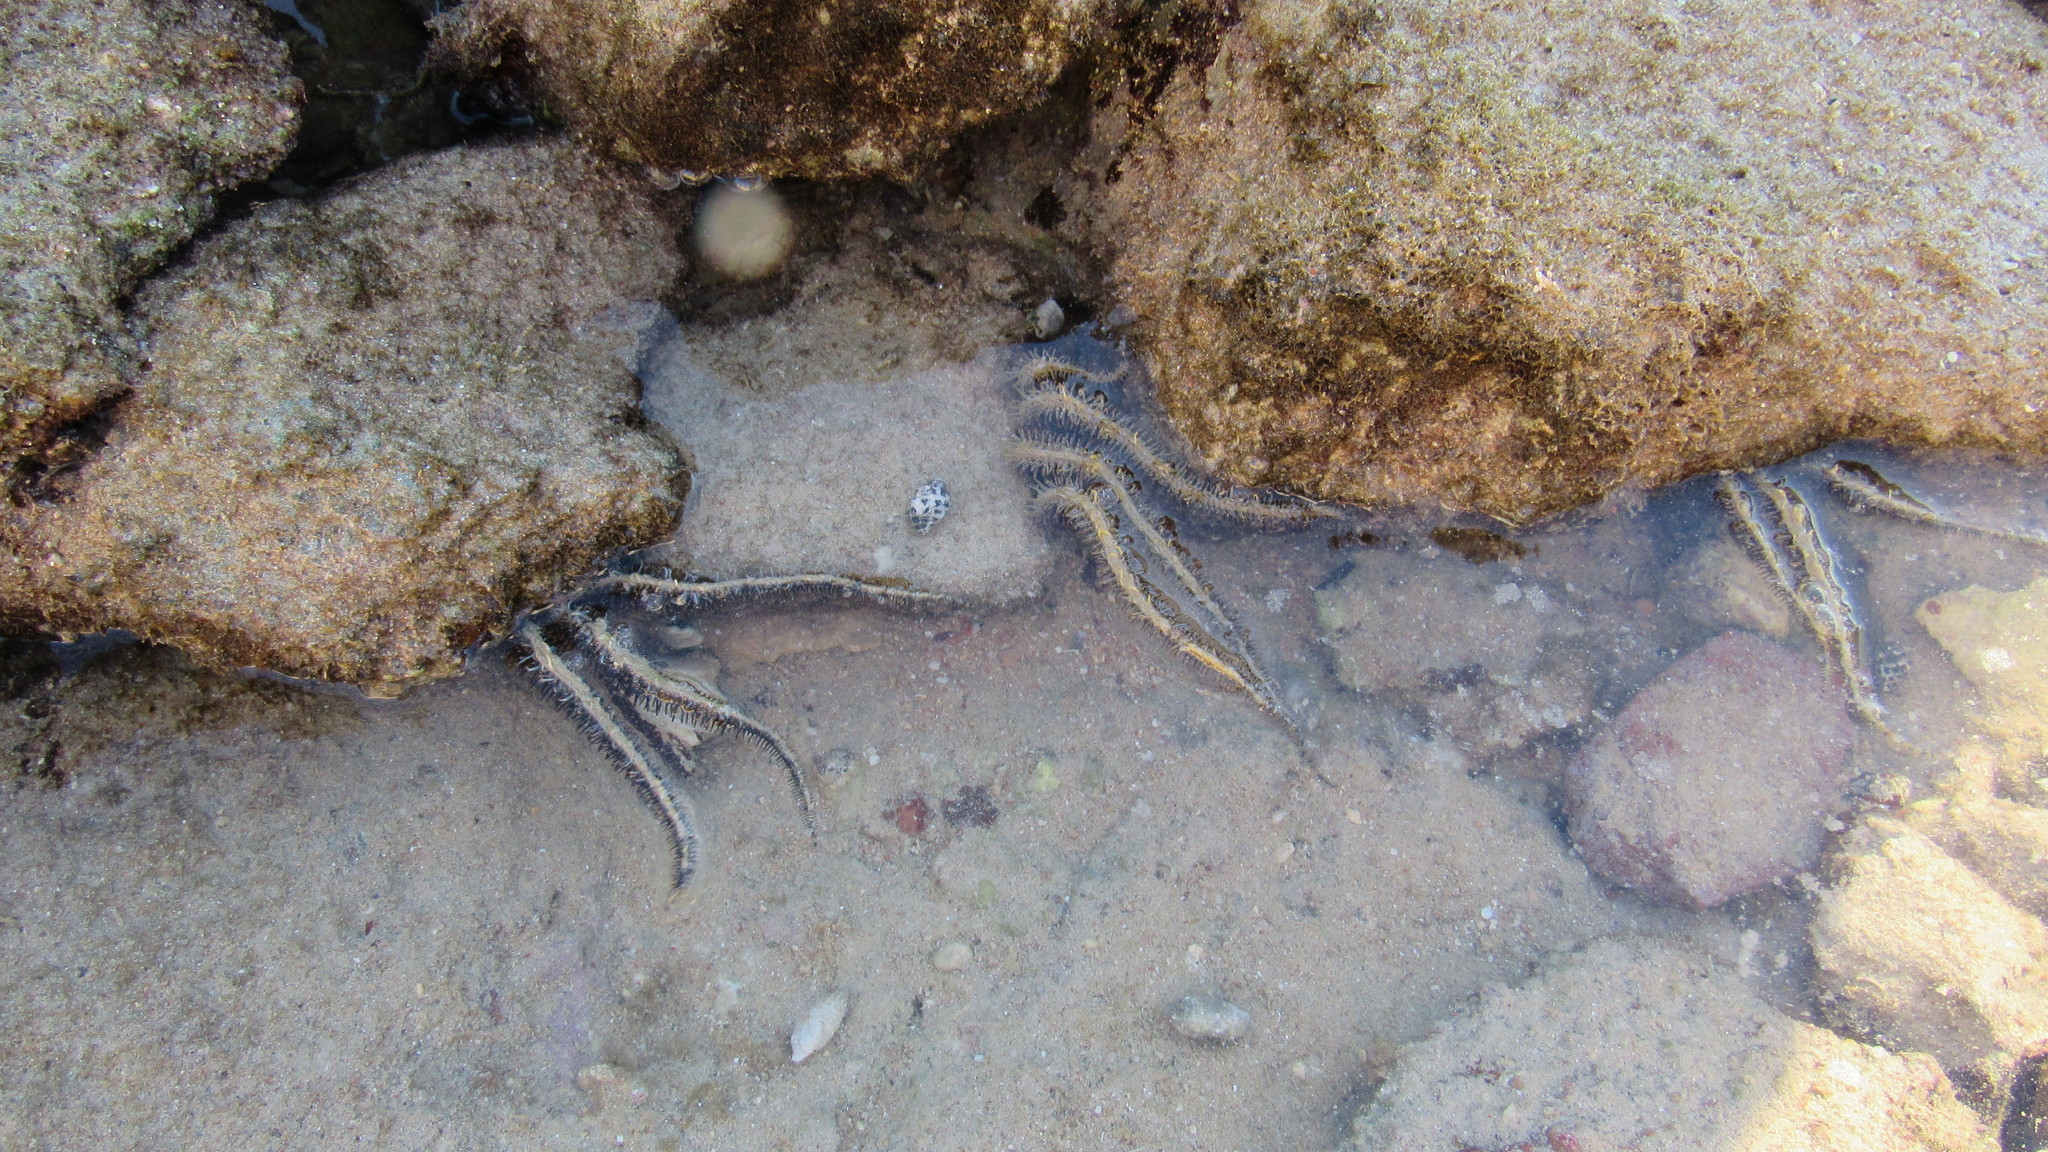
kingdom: Animalia
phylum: Echinodermata
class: Ophiuroidea
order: Ophiacanthida
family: Ophiocomidae
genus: Ophiocoma
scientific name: Ophiocoma scolopendrina
